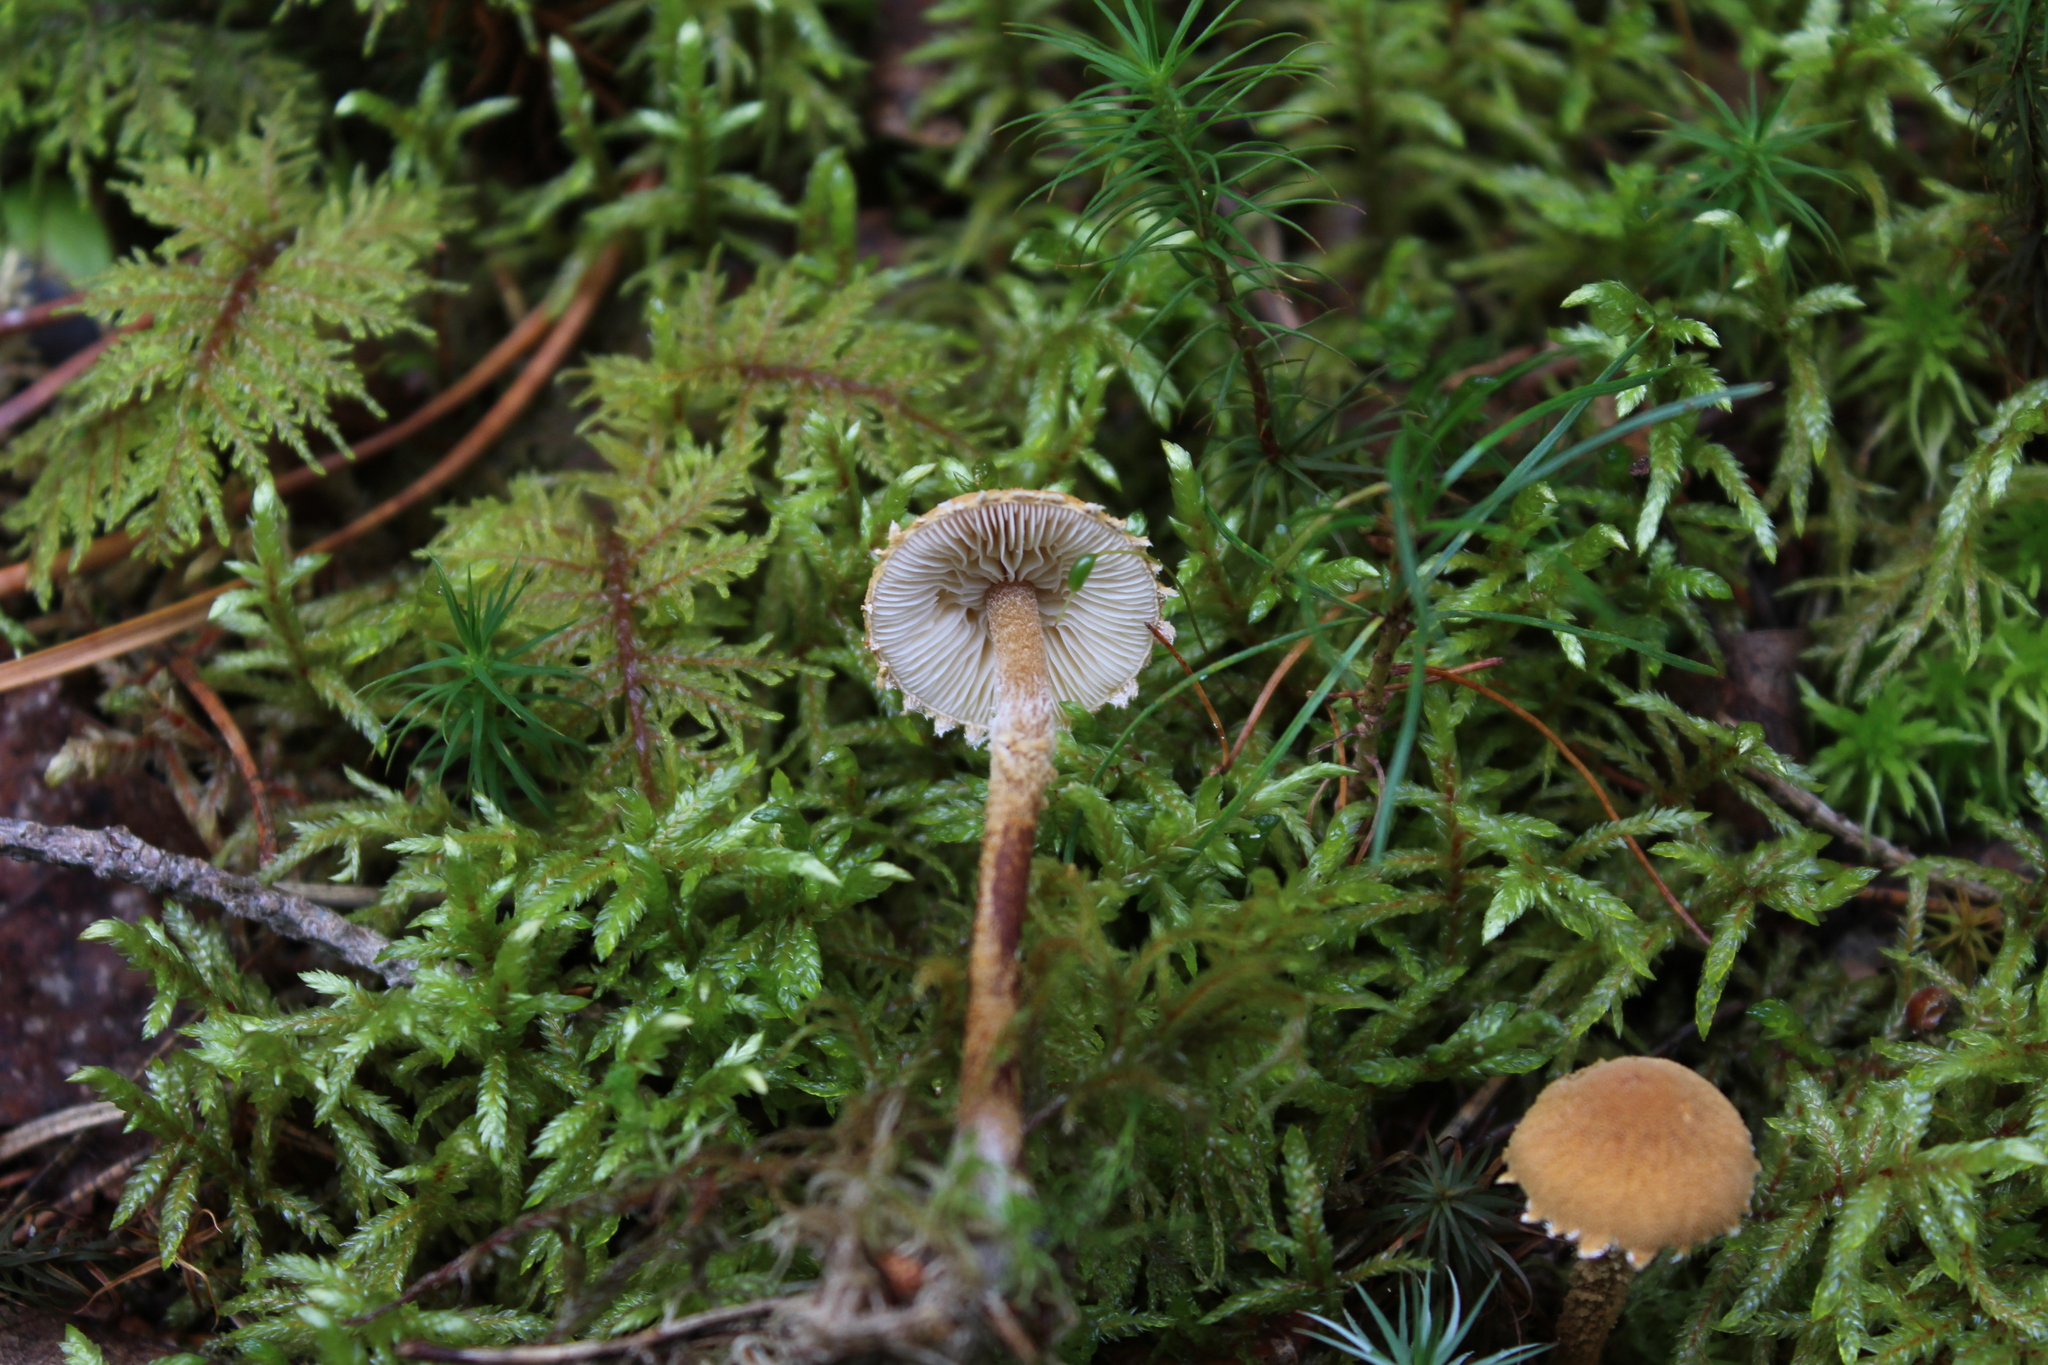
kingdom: Fungi
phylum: Basidiomycota
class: Agaricomycetes
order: Agaricales
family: Tricholomataceae
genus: Cystoderma
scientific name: Cystoderma amianthinum
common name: Earthy powdercap
